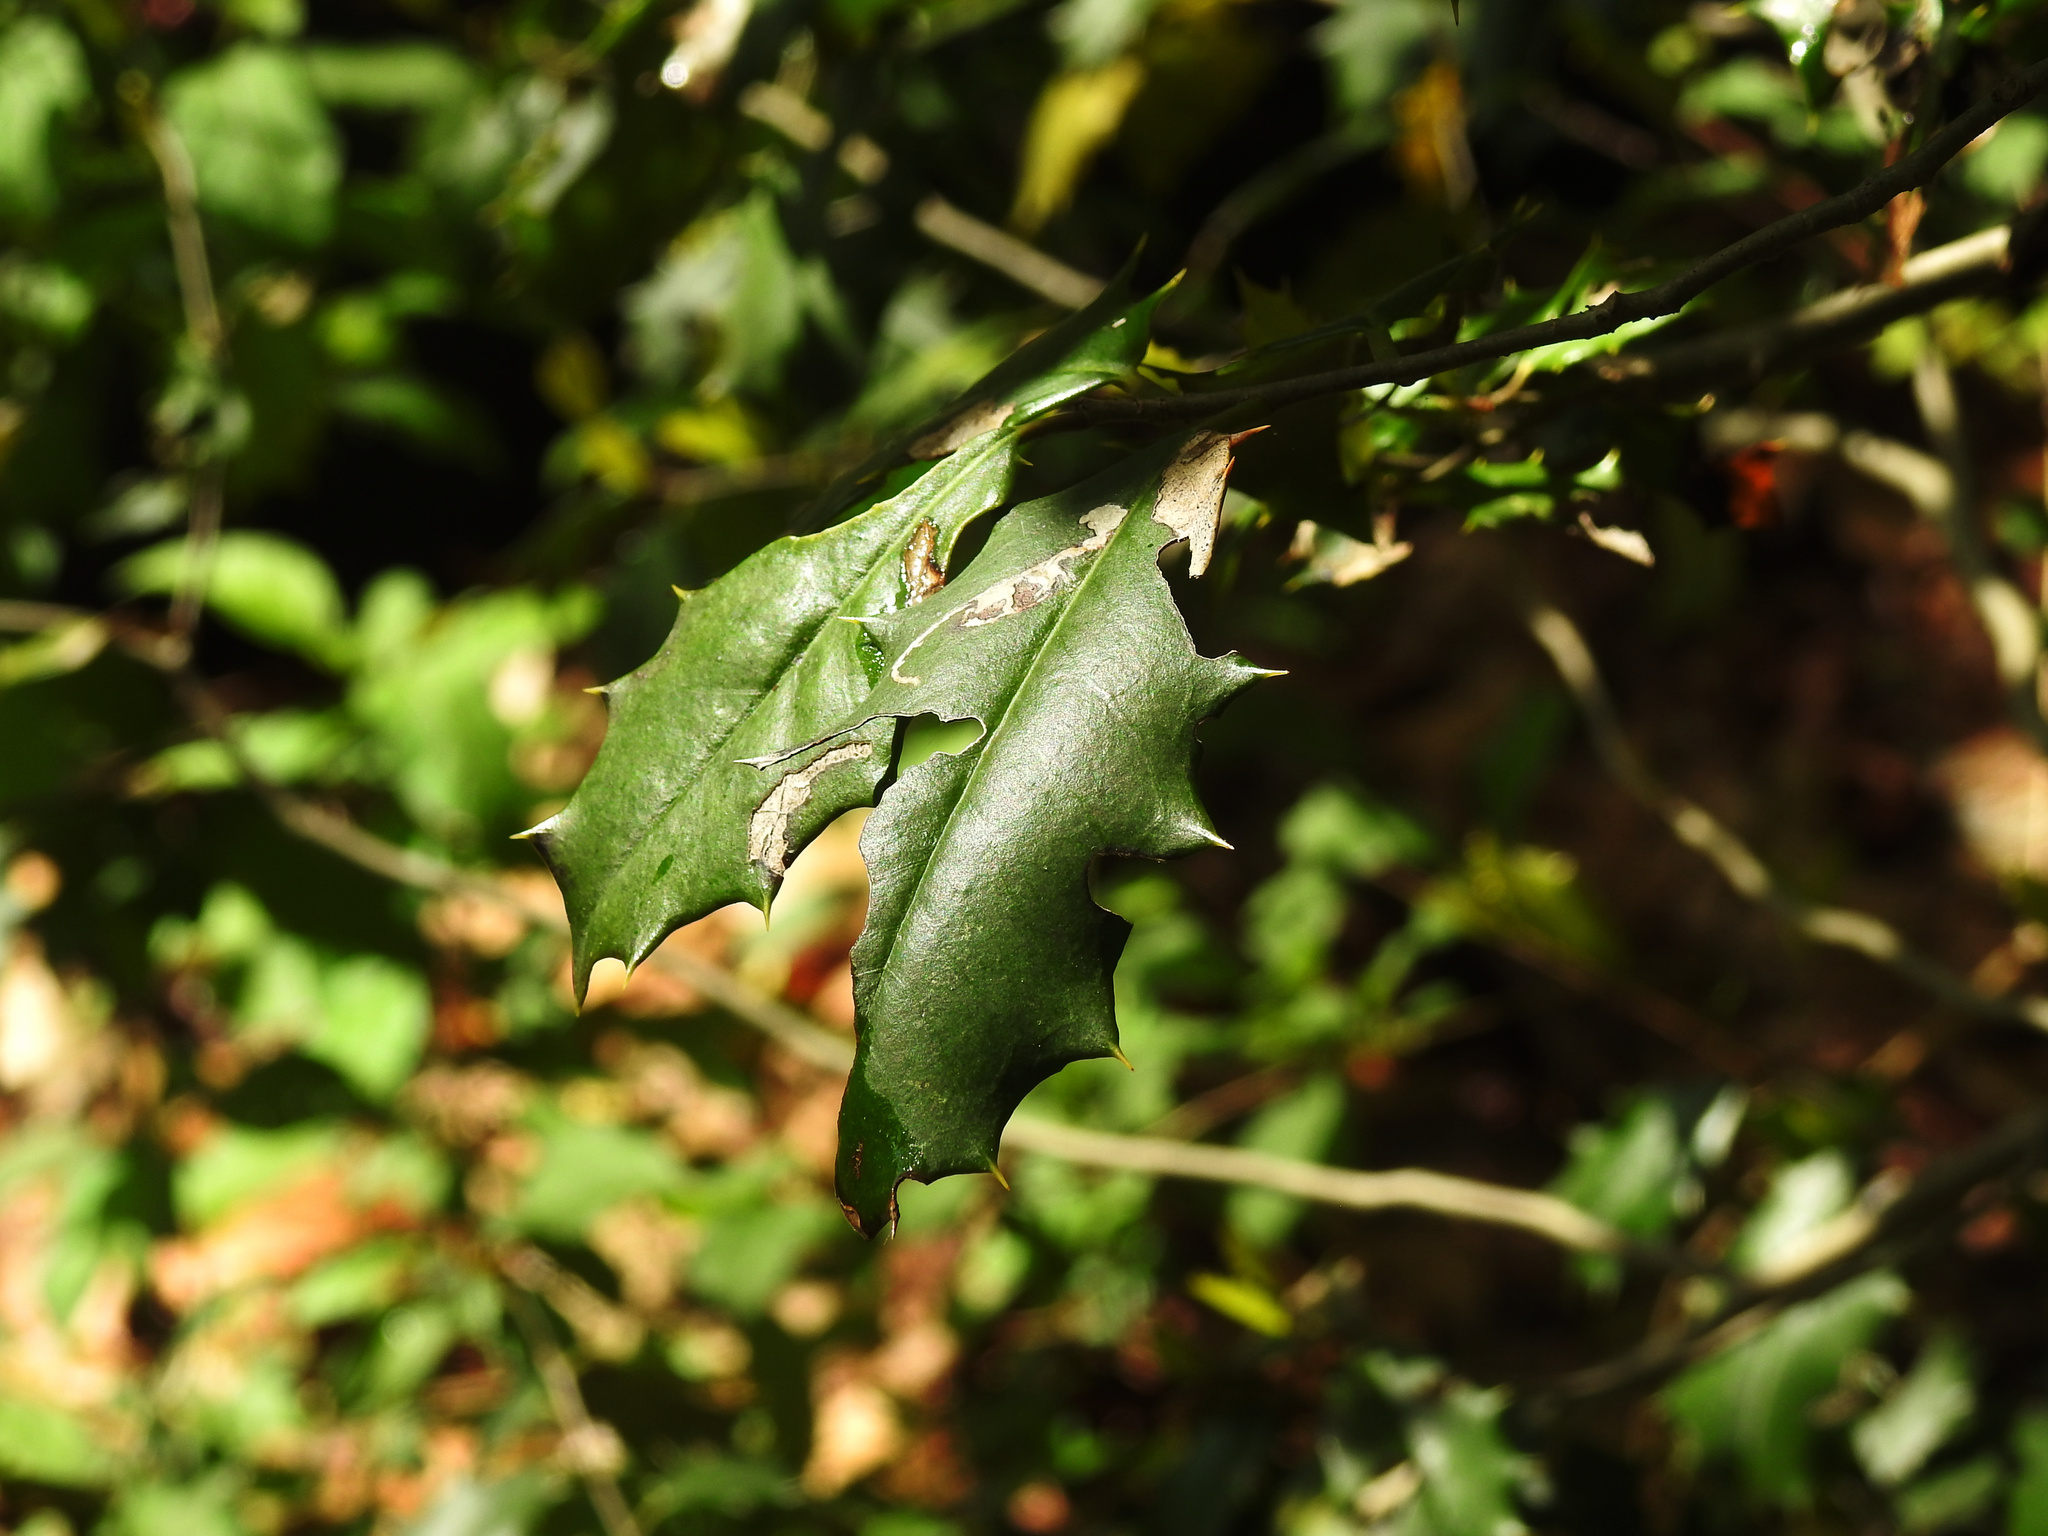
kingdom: Plantae
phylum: Tracheophyta
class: Magnoliopsida
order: Aquifoliales
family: Aquifoliaceae
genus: Ilex
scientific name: Ilex opaca
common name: American holly
